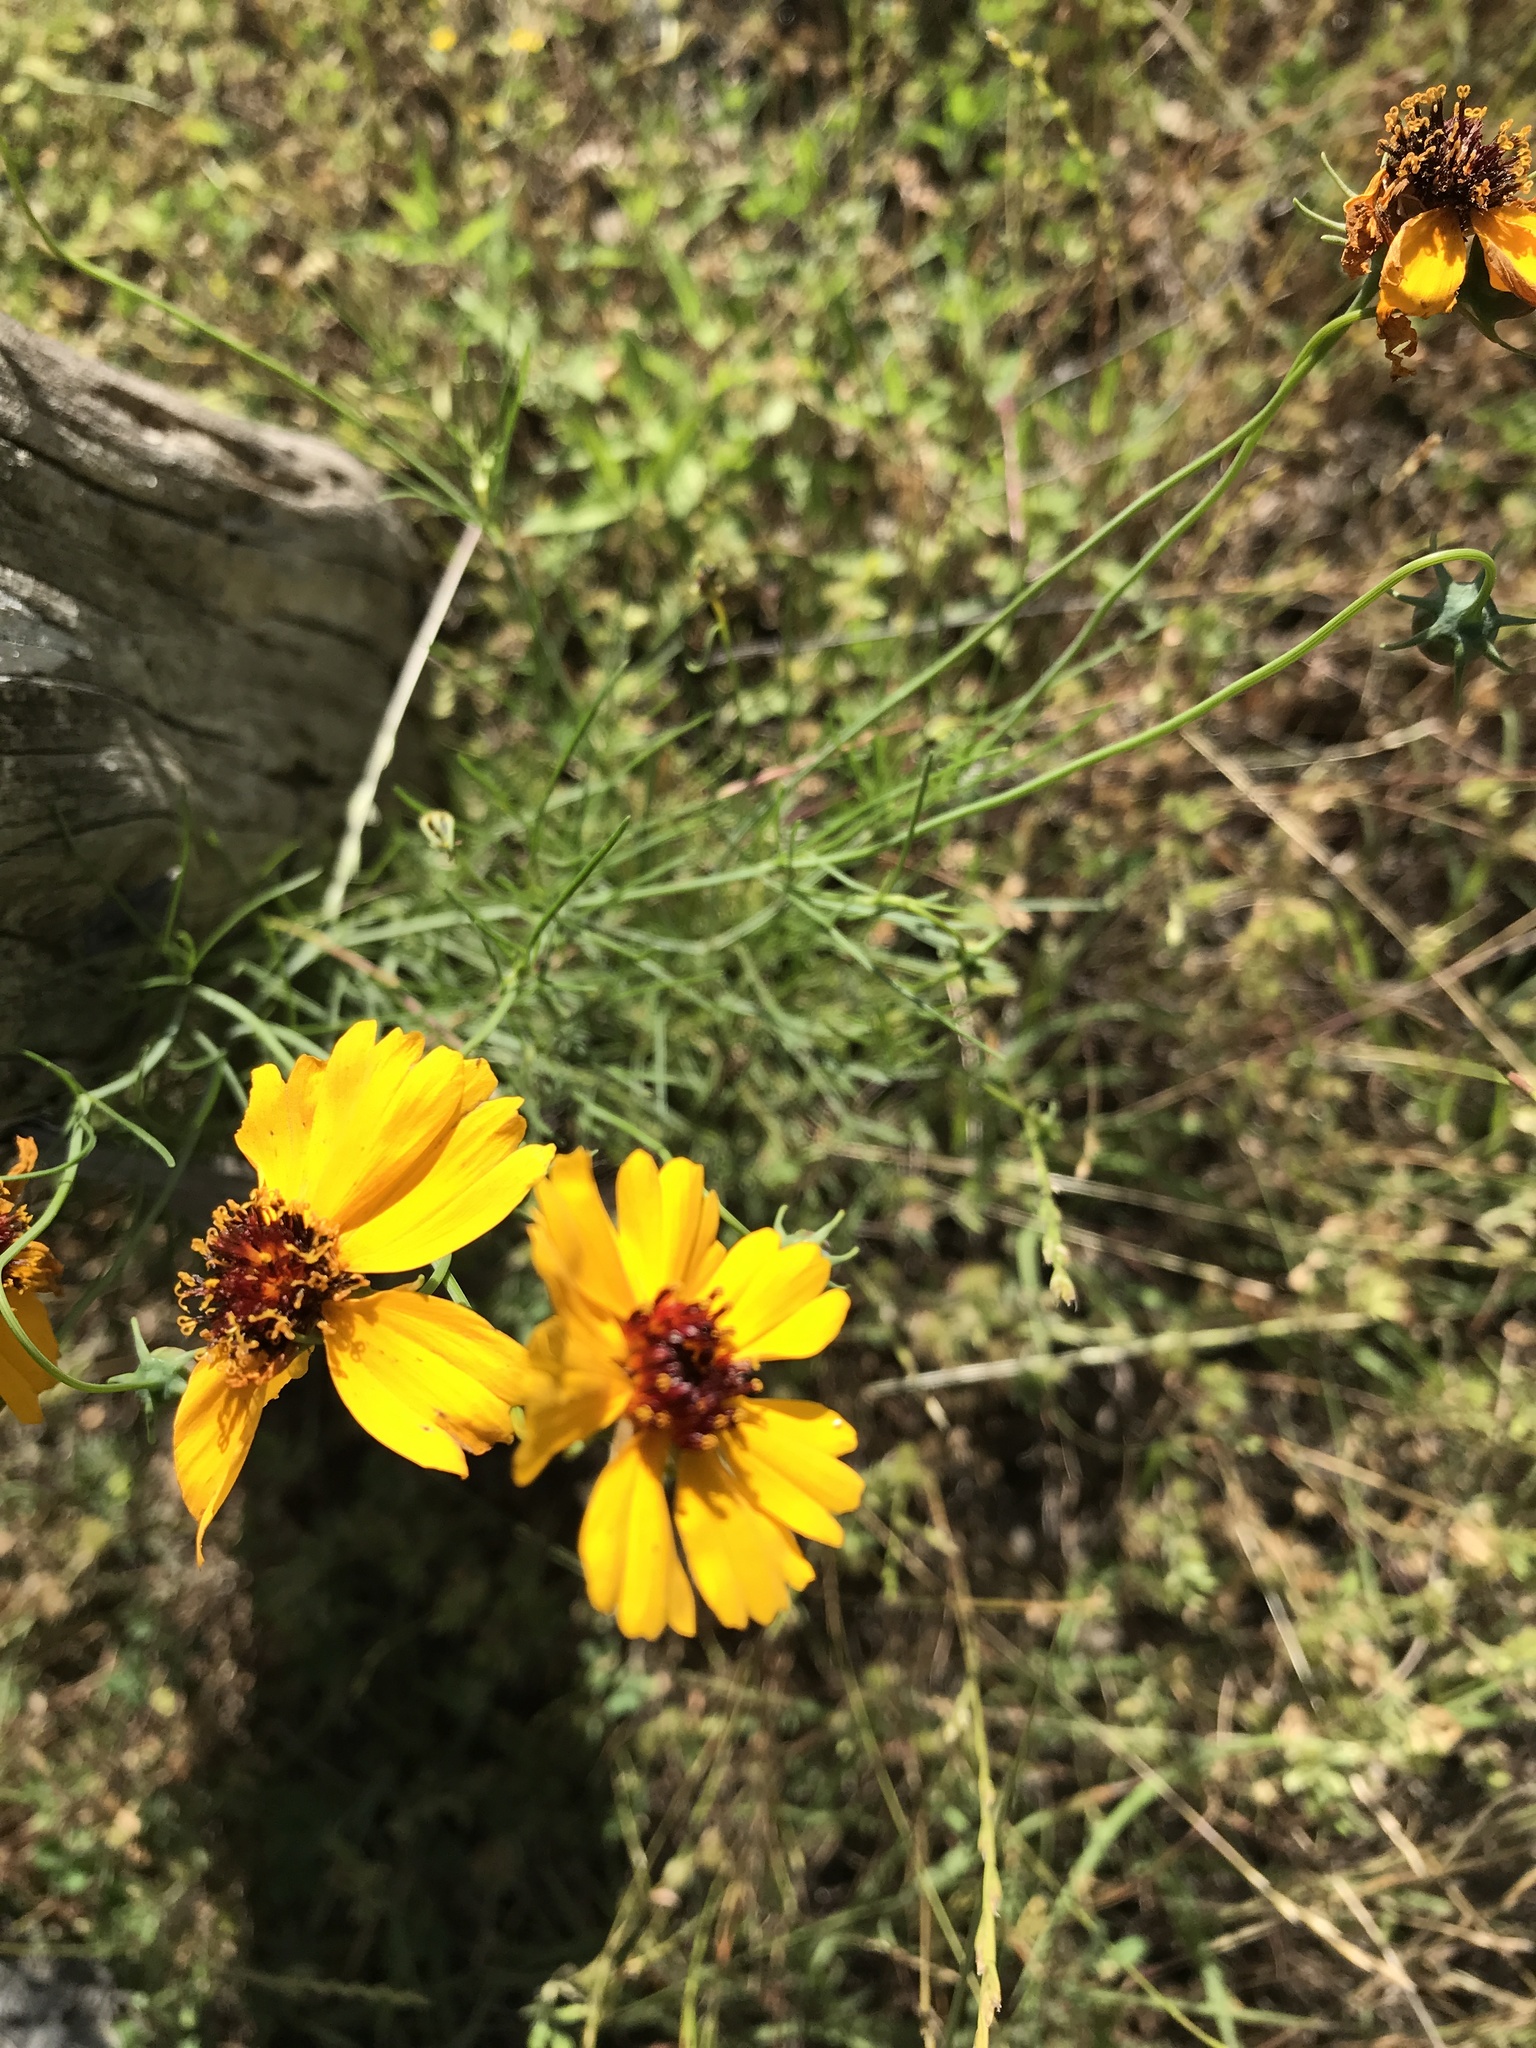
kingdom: Plantae
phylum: Tracheophyta
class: Magnoliopsida
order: Asterales
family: Asteraceae
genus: Thelesperma
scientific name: Thelesperma filifolium
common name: Stiff greenthread
